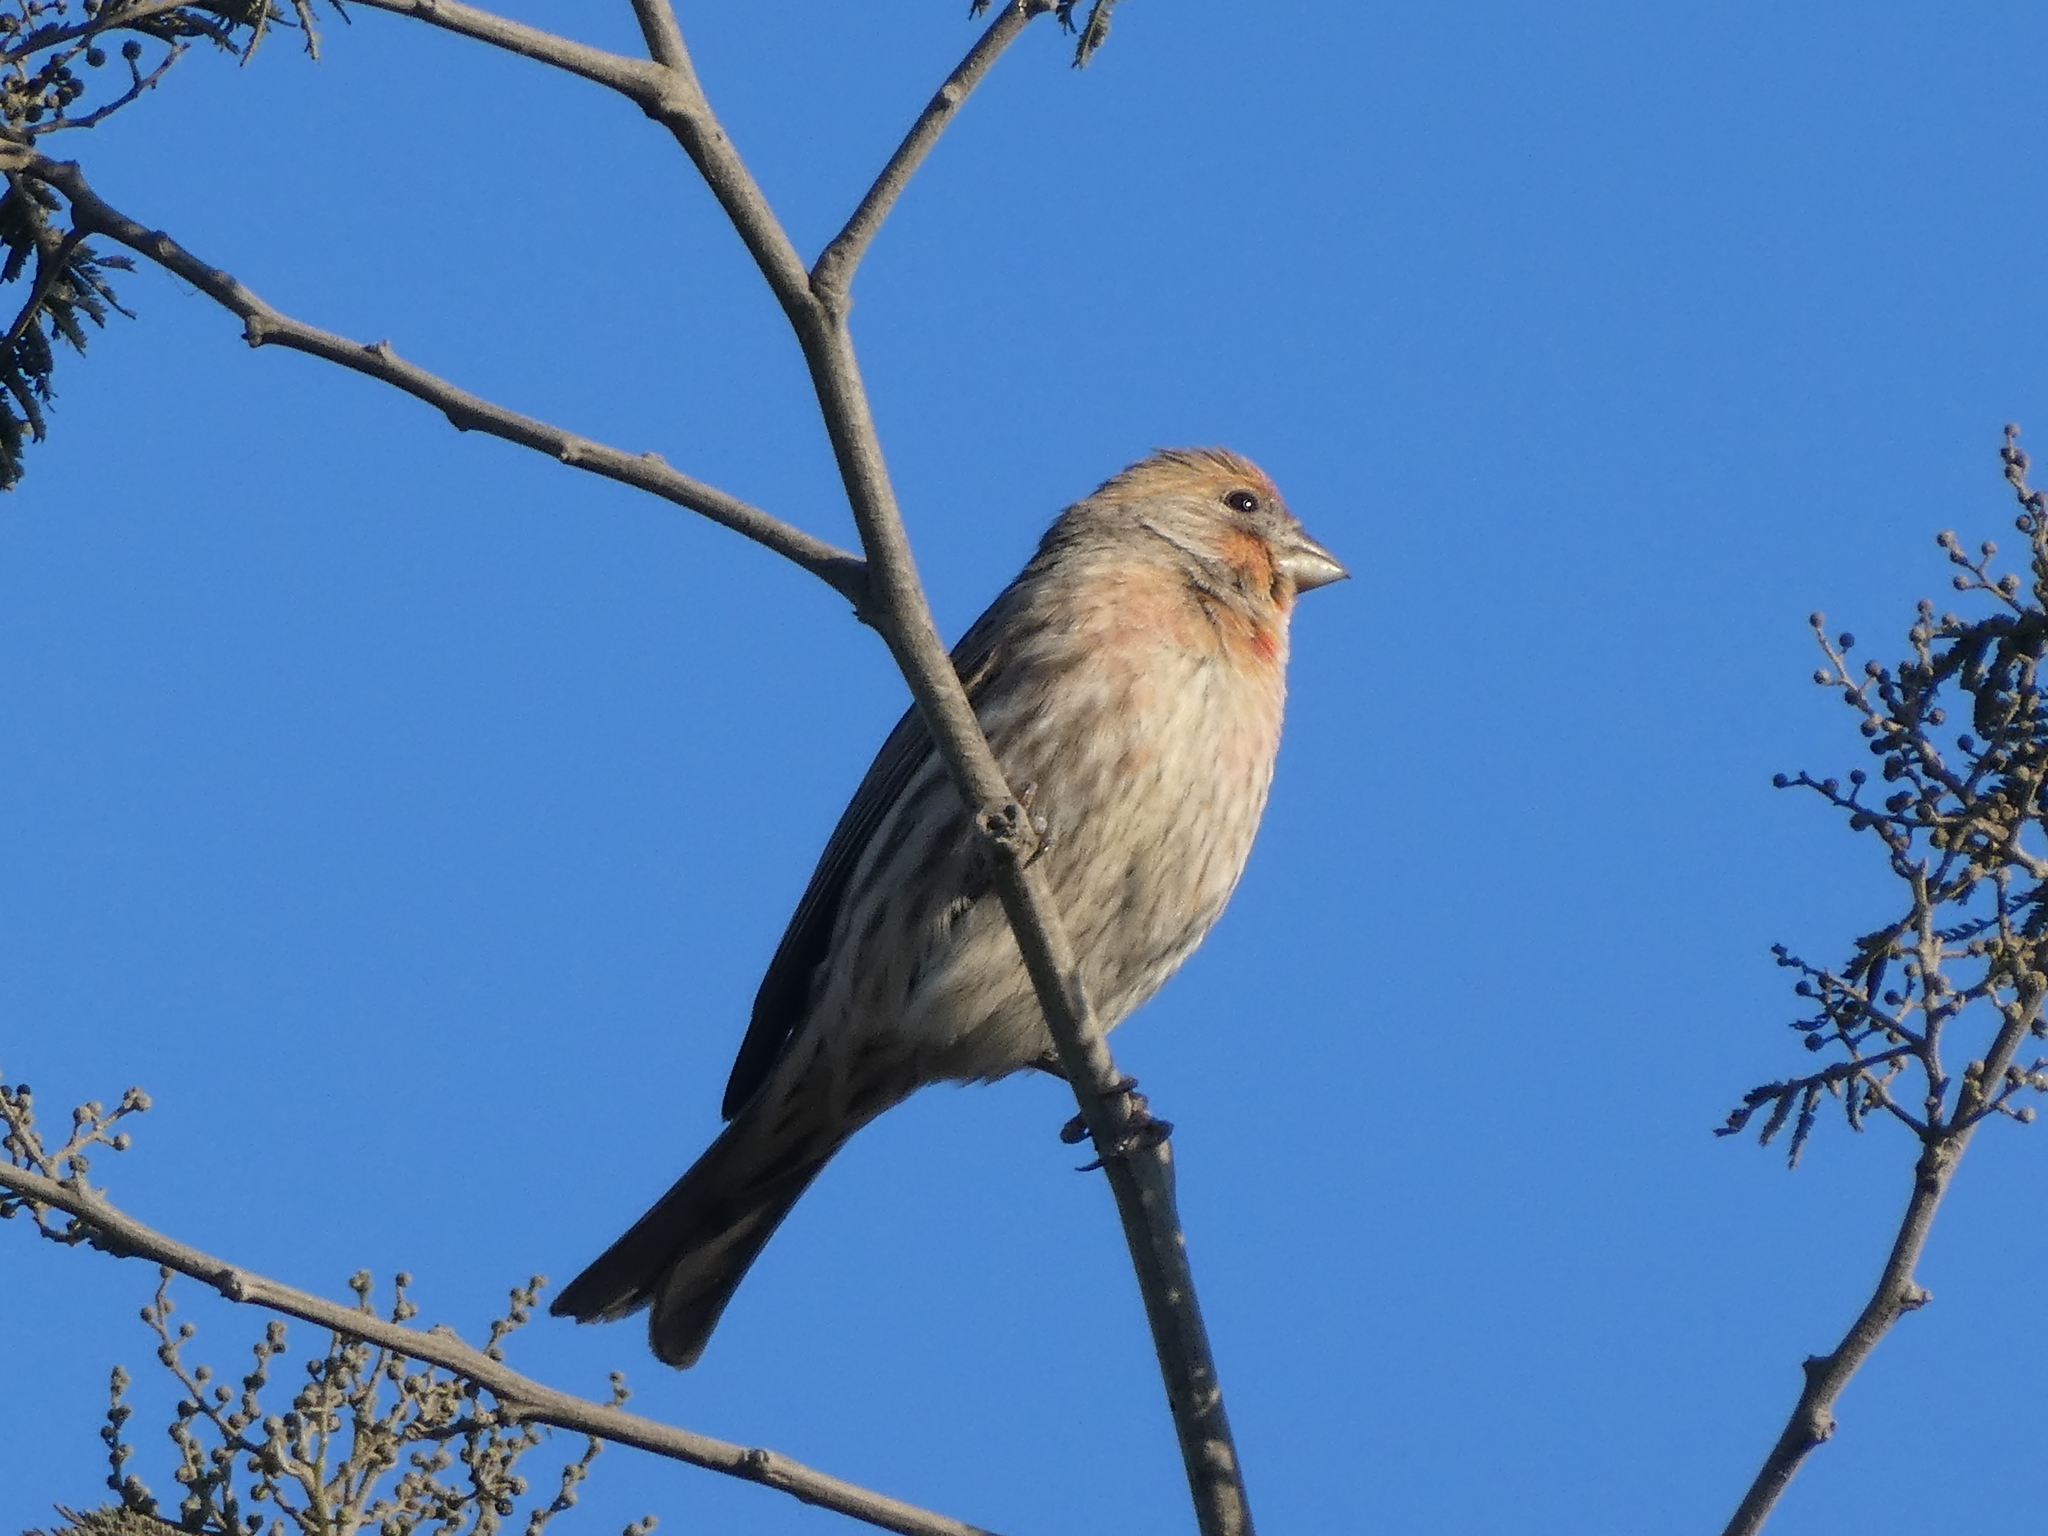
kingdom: Animalia
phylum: Chordata
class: Aves
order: Passeriformes
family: Fringillidae
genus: Haemorhous
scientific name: Haemorhous mexicanus
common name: House finch
